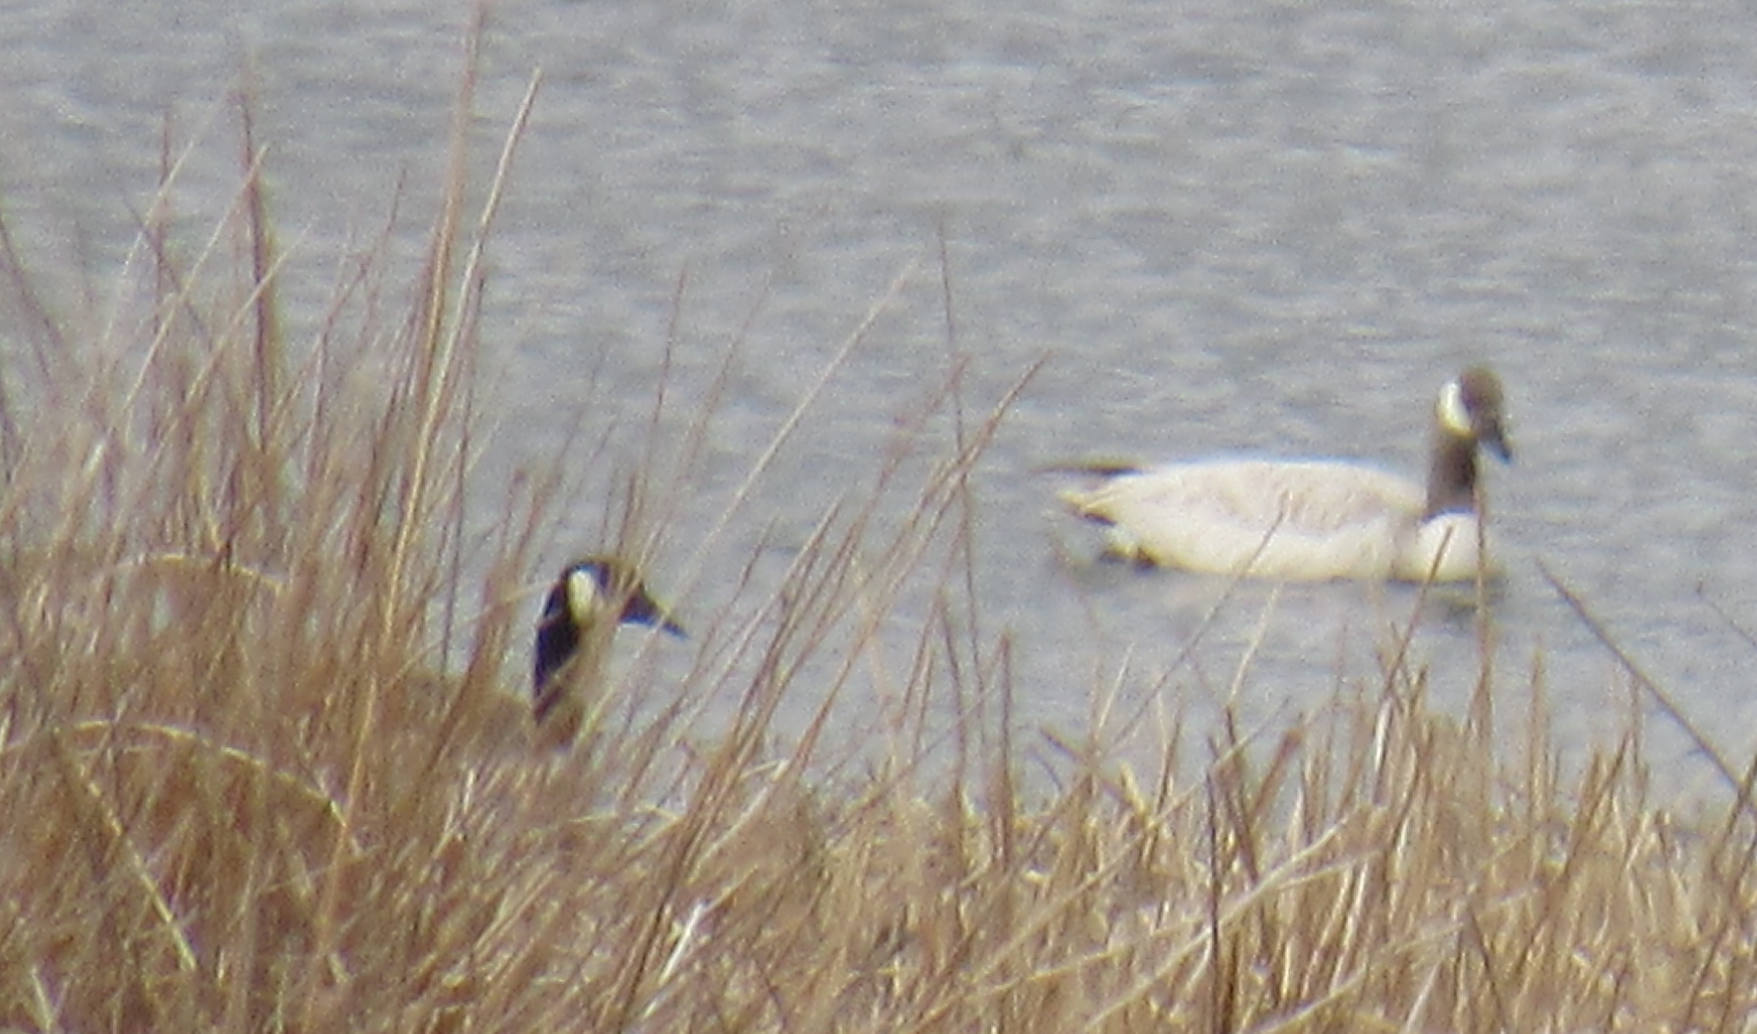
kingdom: Animalia
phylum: Chordata
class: Aves
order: Anseriformes
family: Anatidae
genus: Branta
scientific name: Branta canadensis
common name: Canada goose
